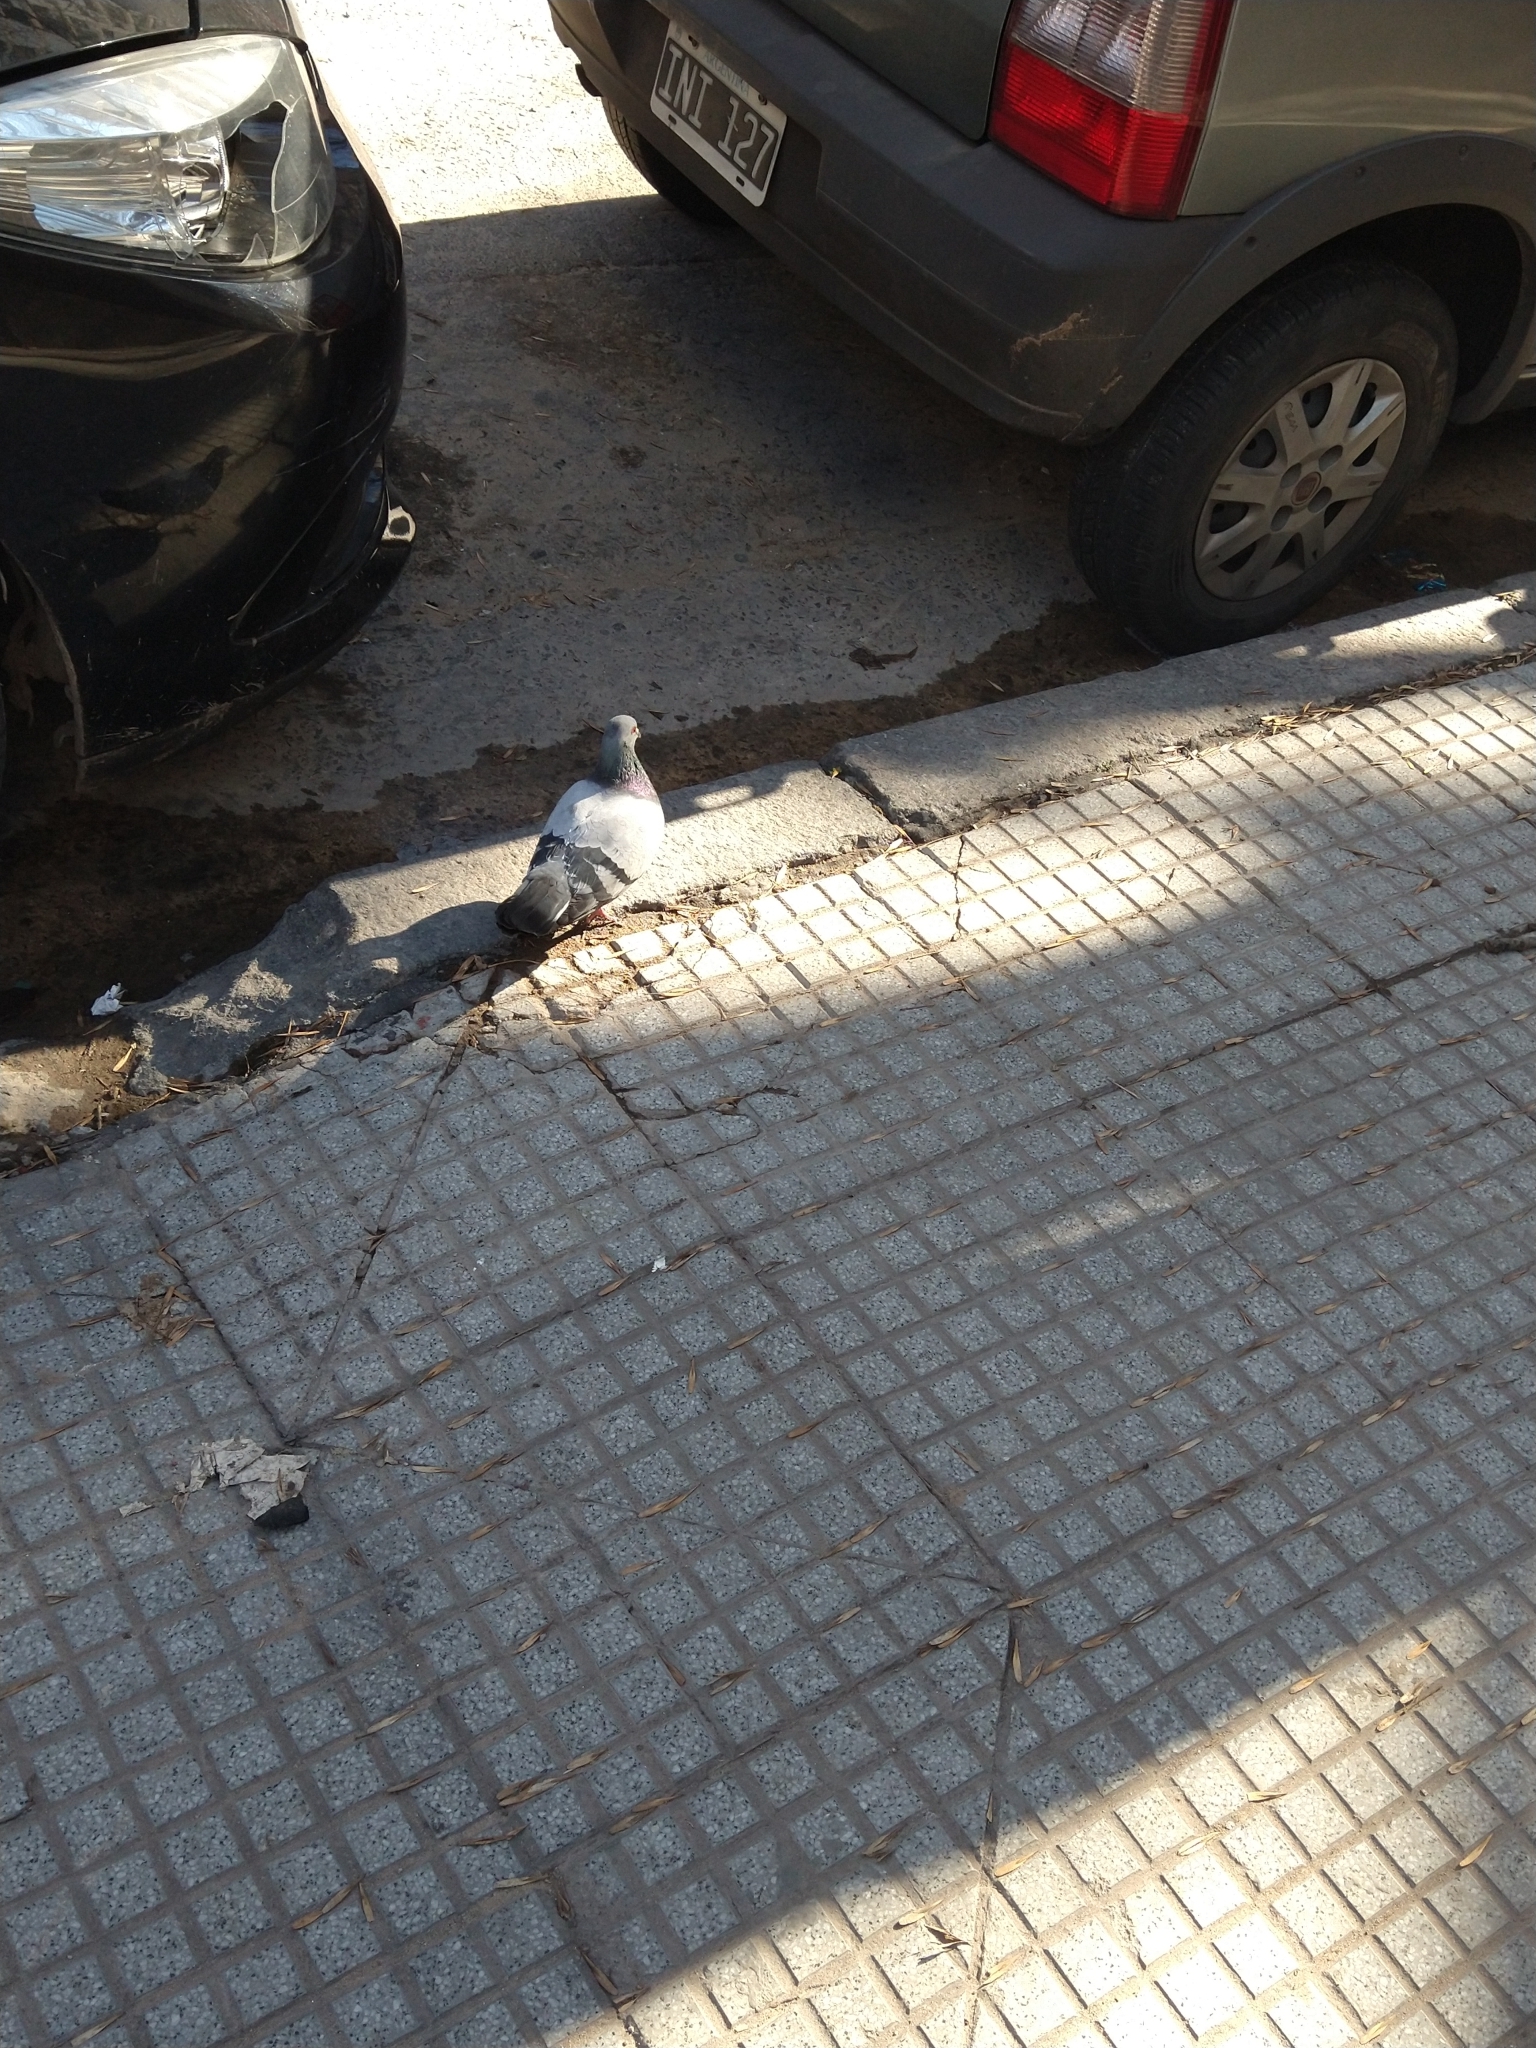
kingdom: Animalia
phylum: Chordata
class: Aves
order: Columbiformes
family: Columbidae
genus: Columba
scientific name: Columba livia
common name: Rock pigeon
